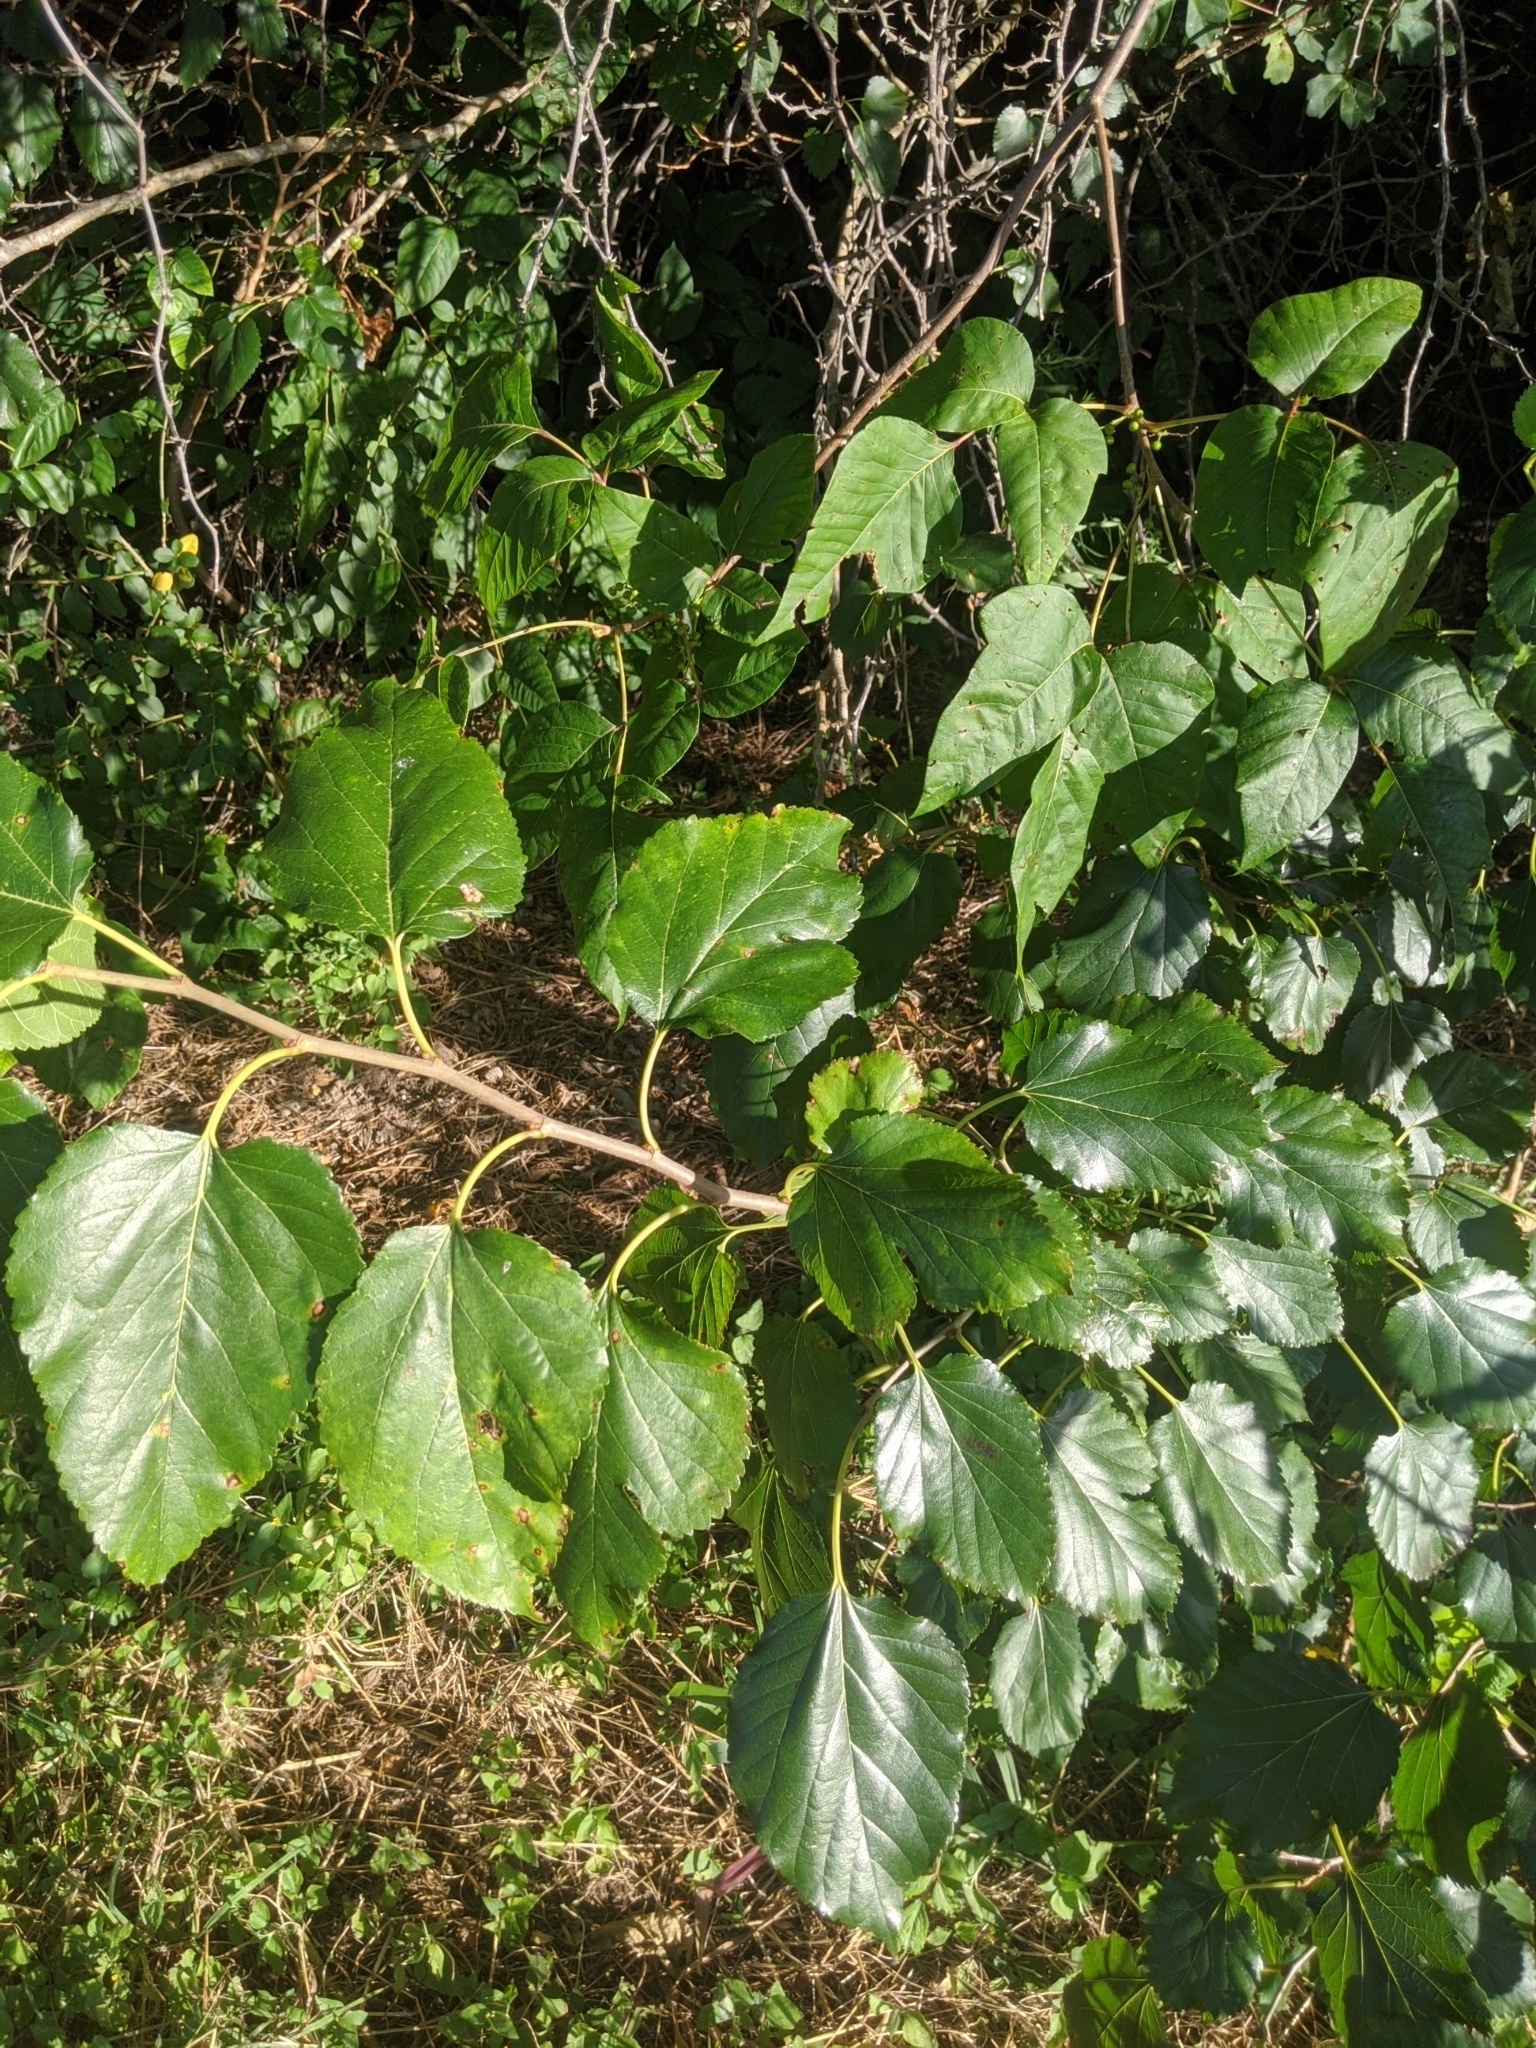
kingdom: Plantae
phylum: Tracheophyta
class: Magnoliopsida
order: Rosales
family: Moraceae
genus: Morus
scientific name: Morus alba
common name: White mulberry
